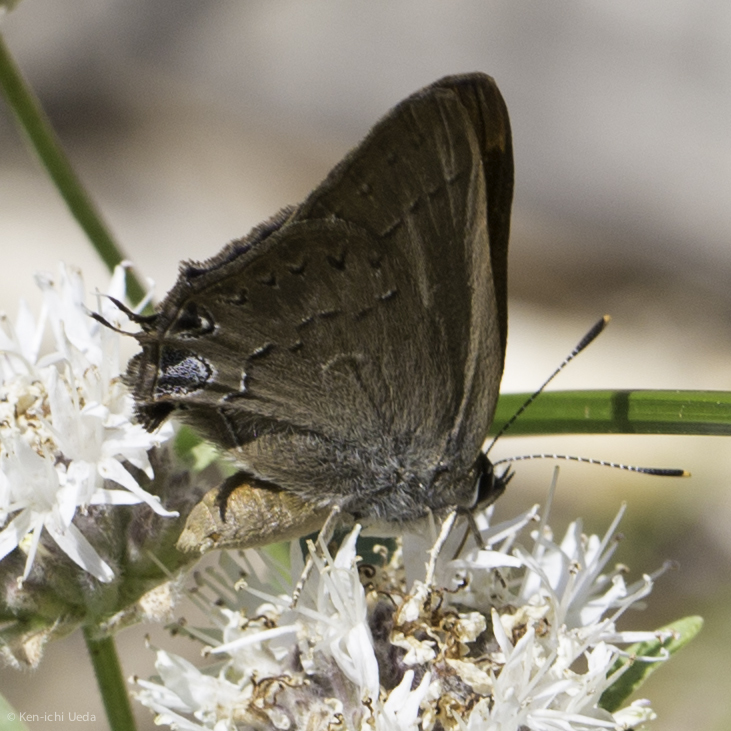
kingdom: Animalia
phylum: Arthropoda
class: Insecta
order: Lepidoptera
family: Lycaenidae
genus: Strymon
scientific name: Strymon saepium
